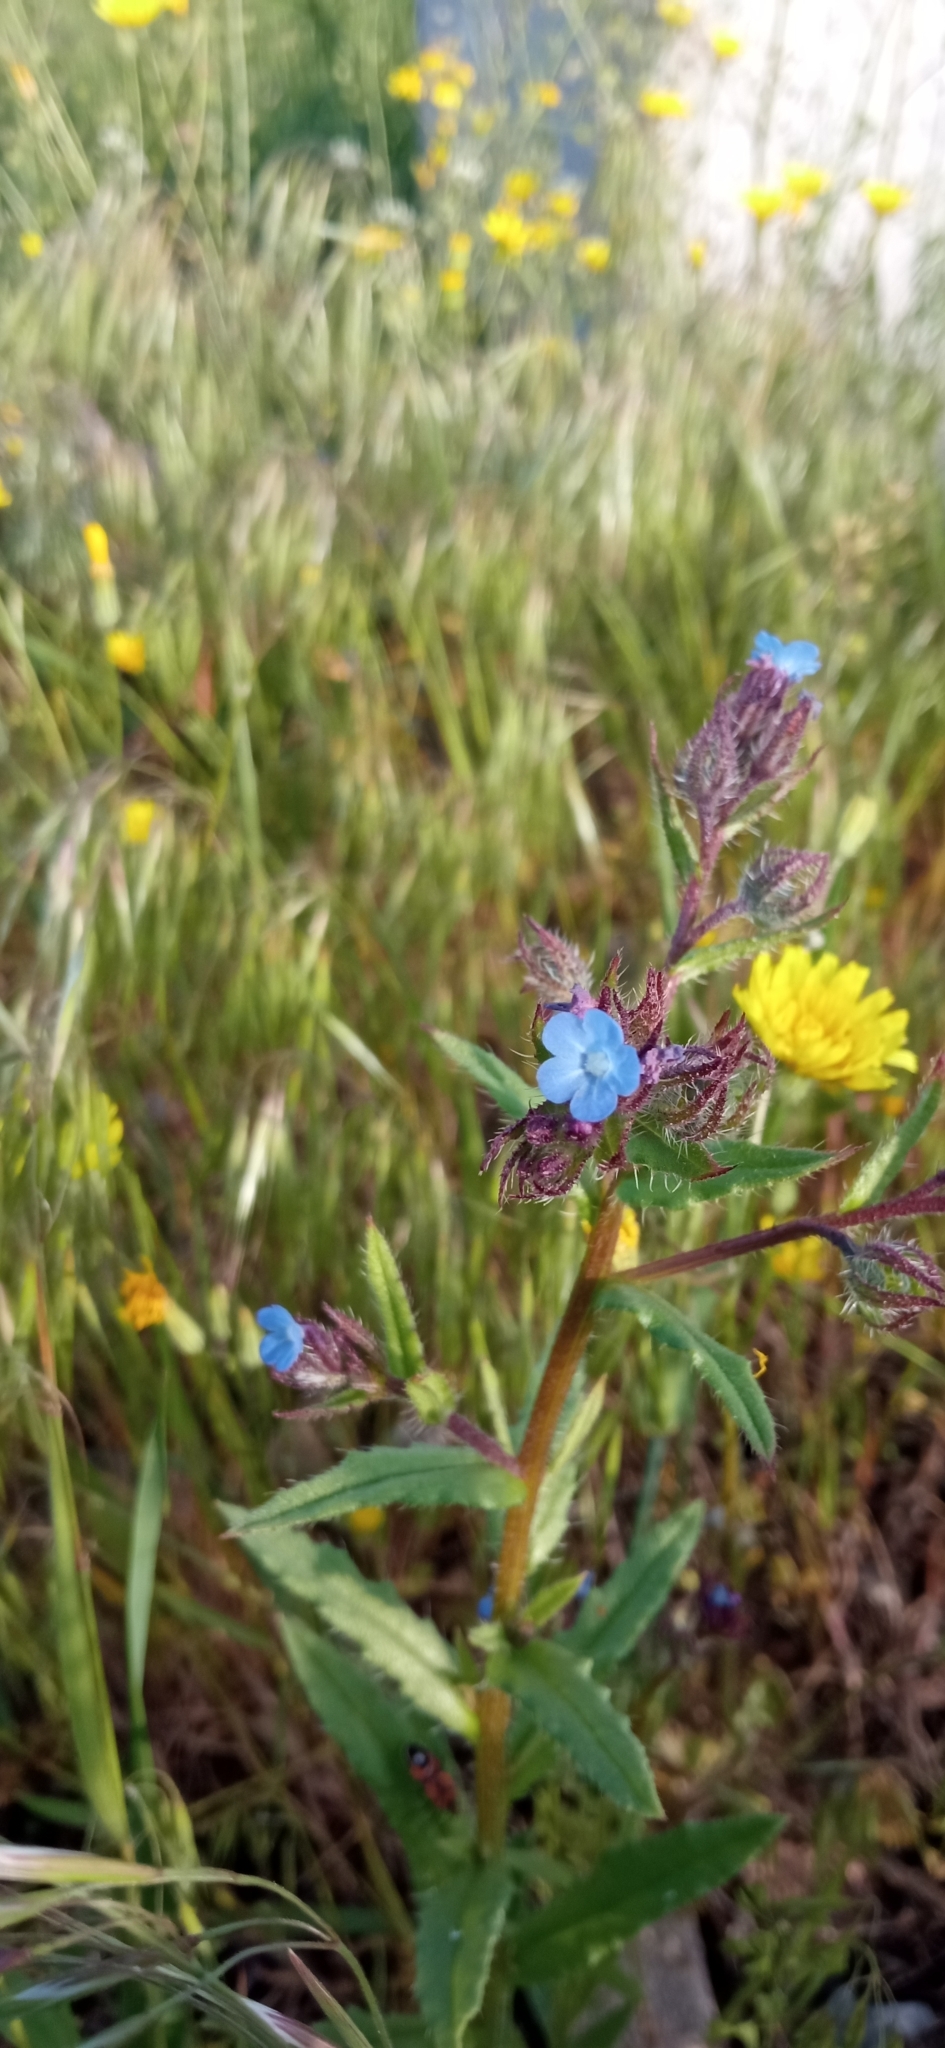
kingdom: Plantae
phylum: Tracheophyta
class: Magnoliopsida
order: Boraginales
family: Boraginaceae
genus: Lycopsis
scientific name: Lycopsis arvensis
